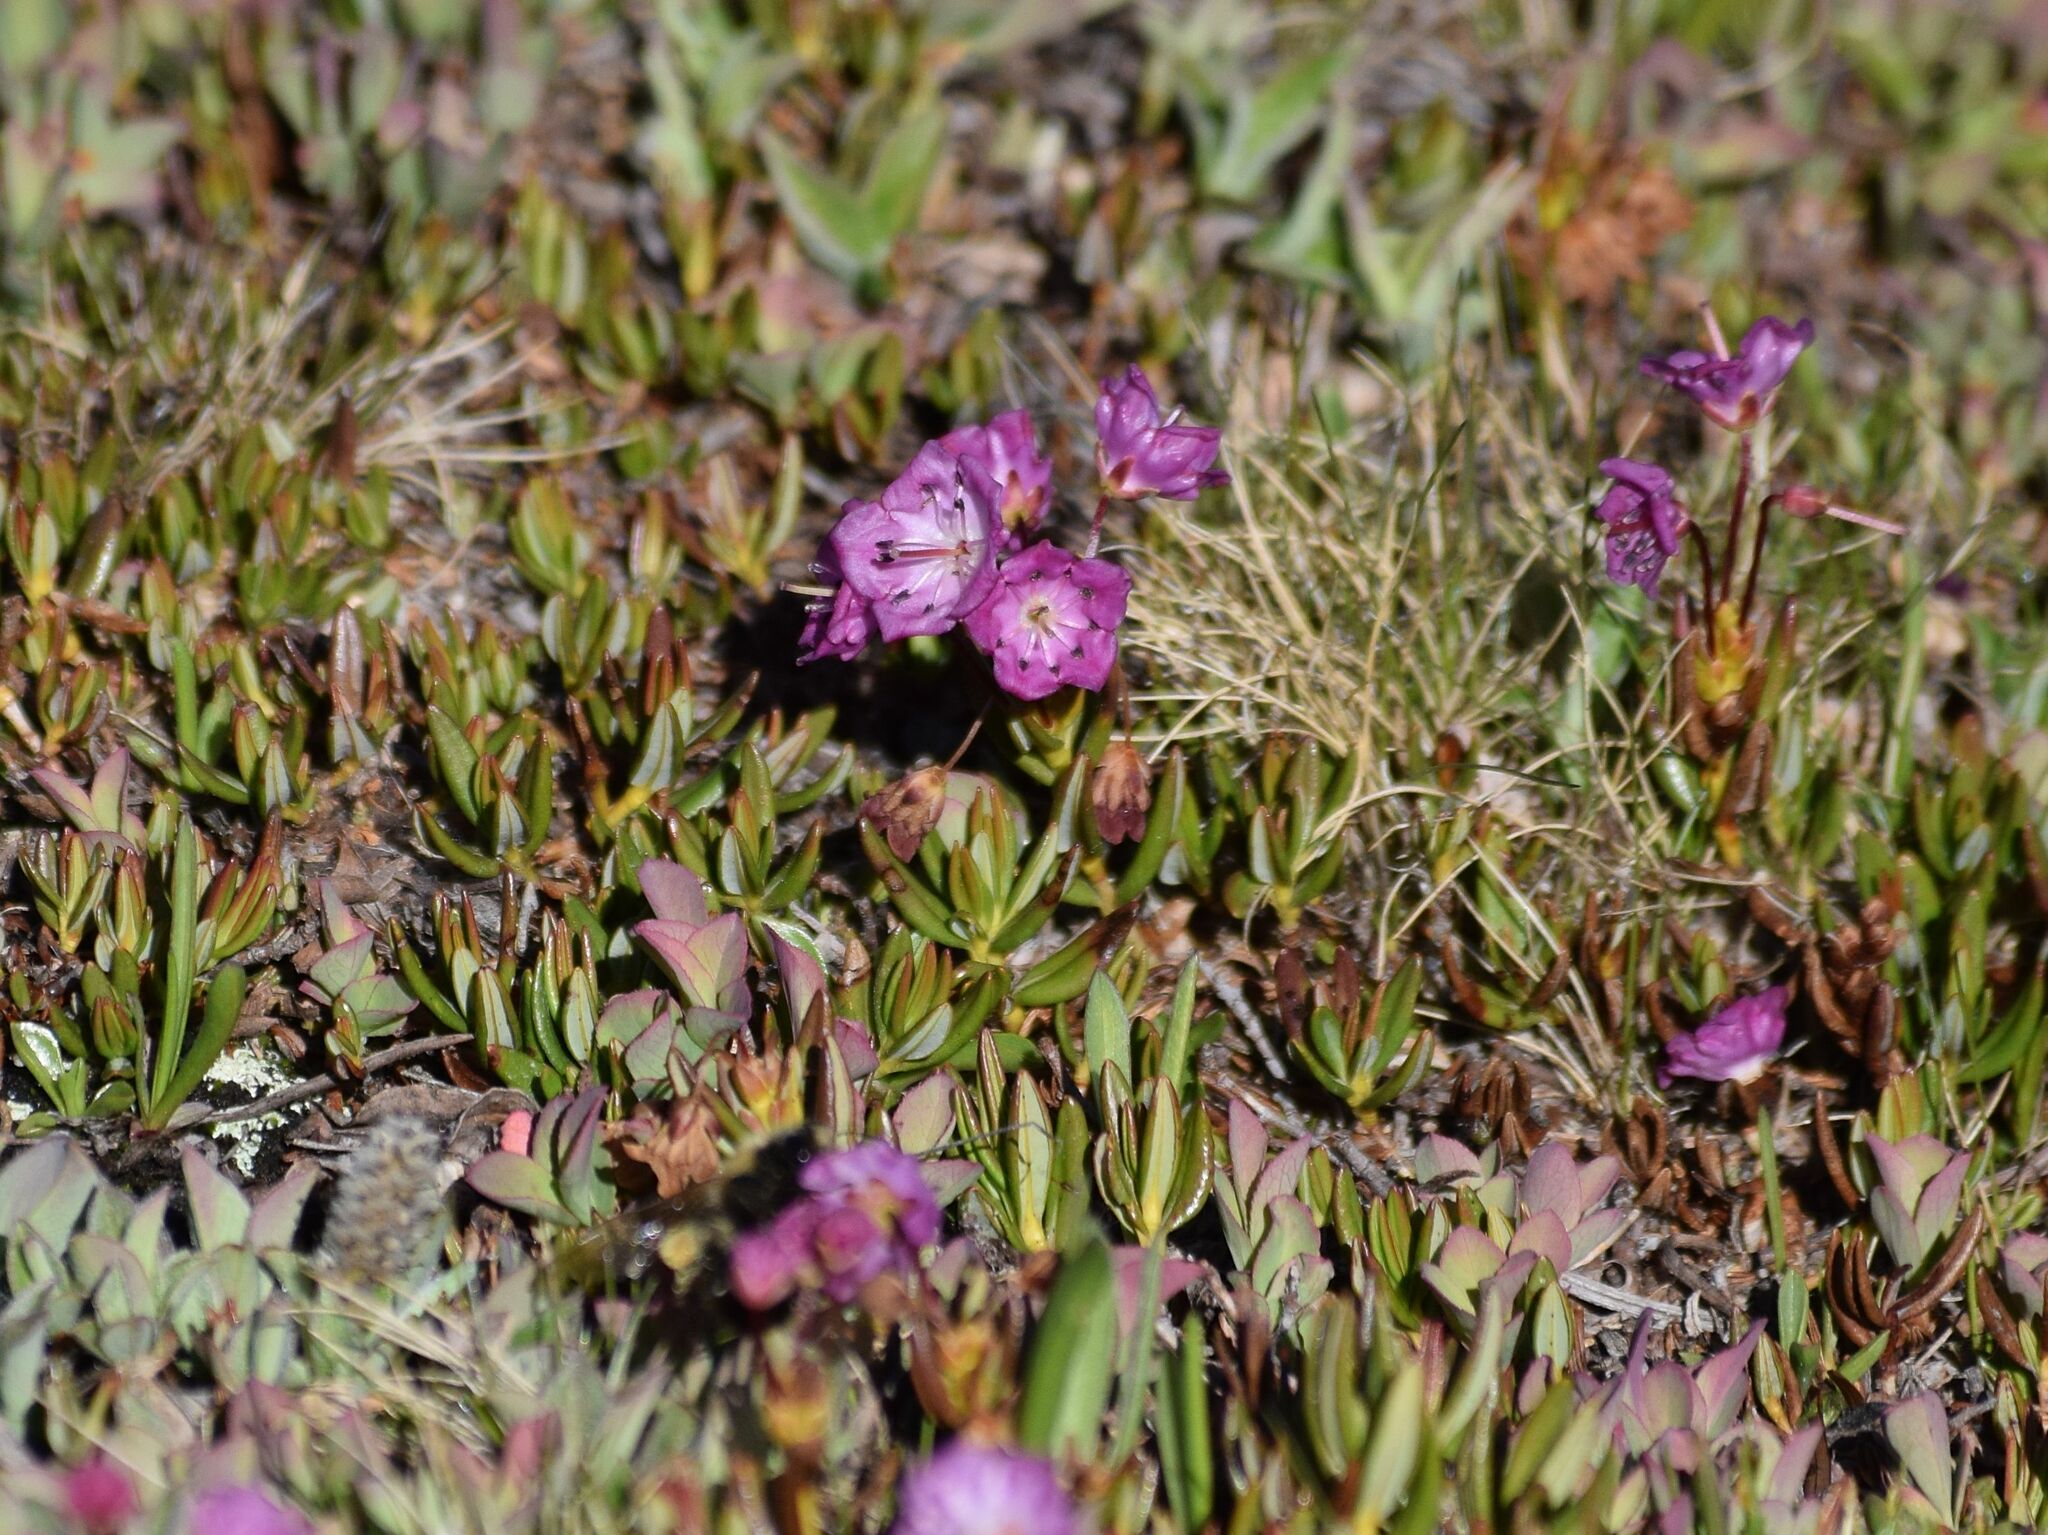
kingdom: Plantae
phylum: Tracheophyta
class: Magnoliopsida
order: Ericales
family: Ericaceae
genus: Kalmia
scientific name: Kalmia microphylla
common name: Alpine bog laurel
